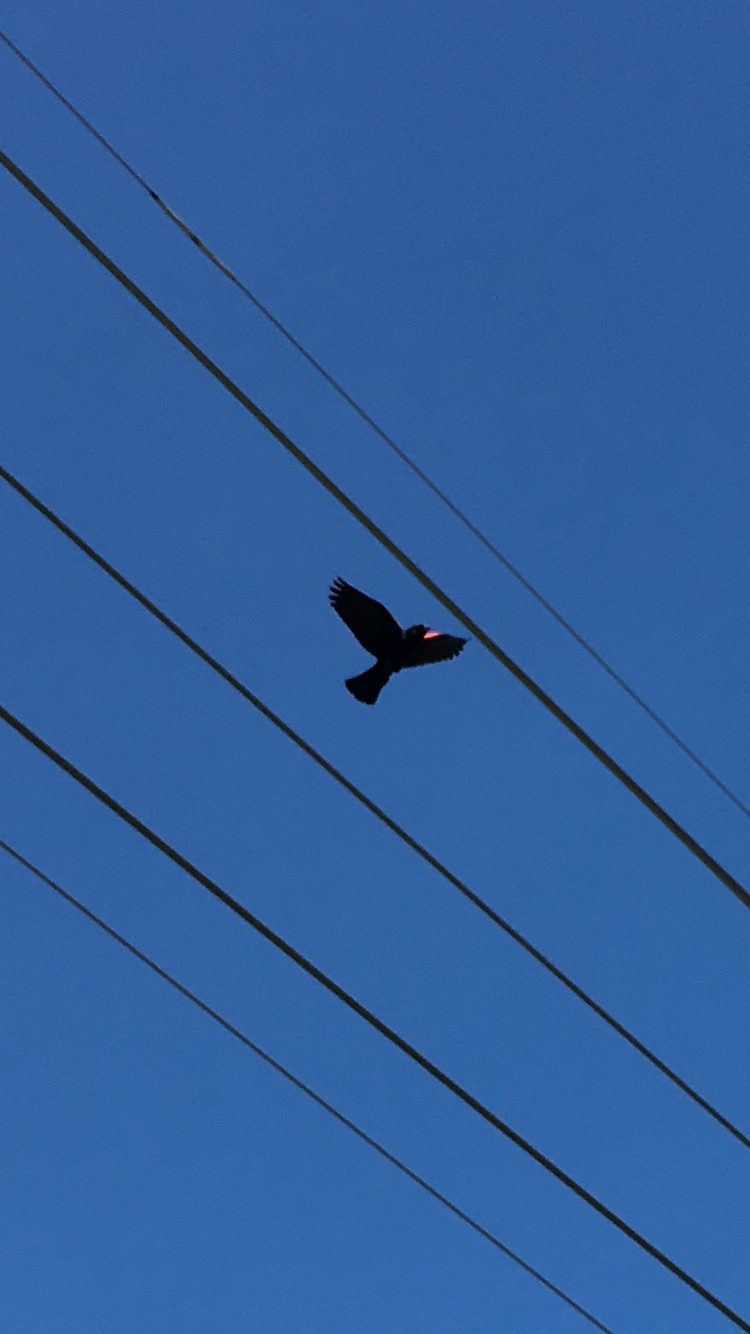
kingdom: Animalia
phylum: Chordata
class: Aves
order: Passeriformes
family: Icteridae
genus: Agelaius
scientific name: Agelaius phoeniceus
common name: Red-winged blackbird
